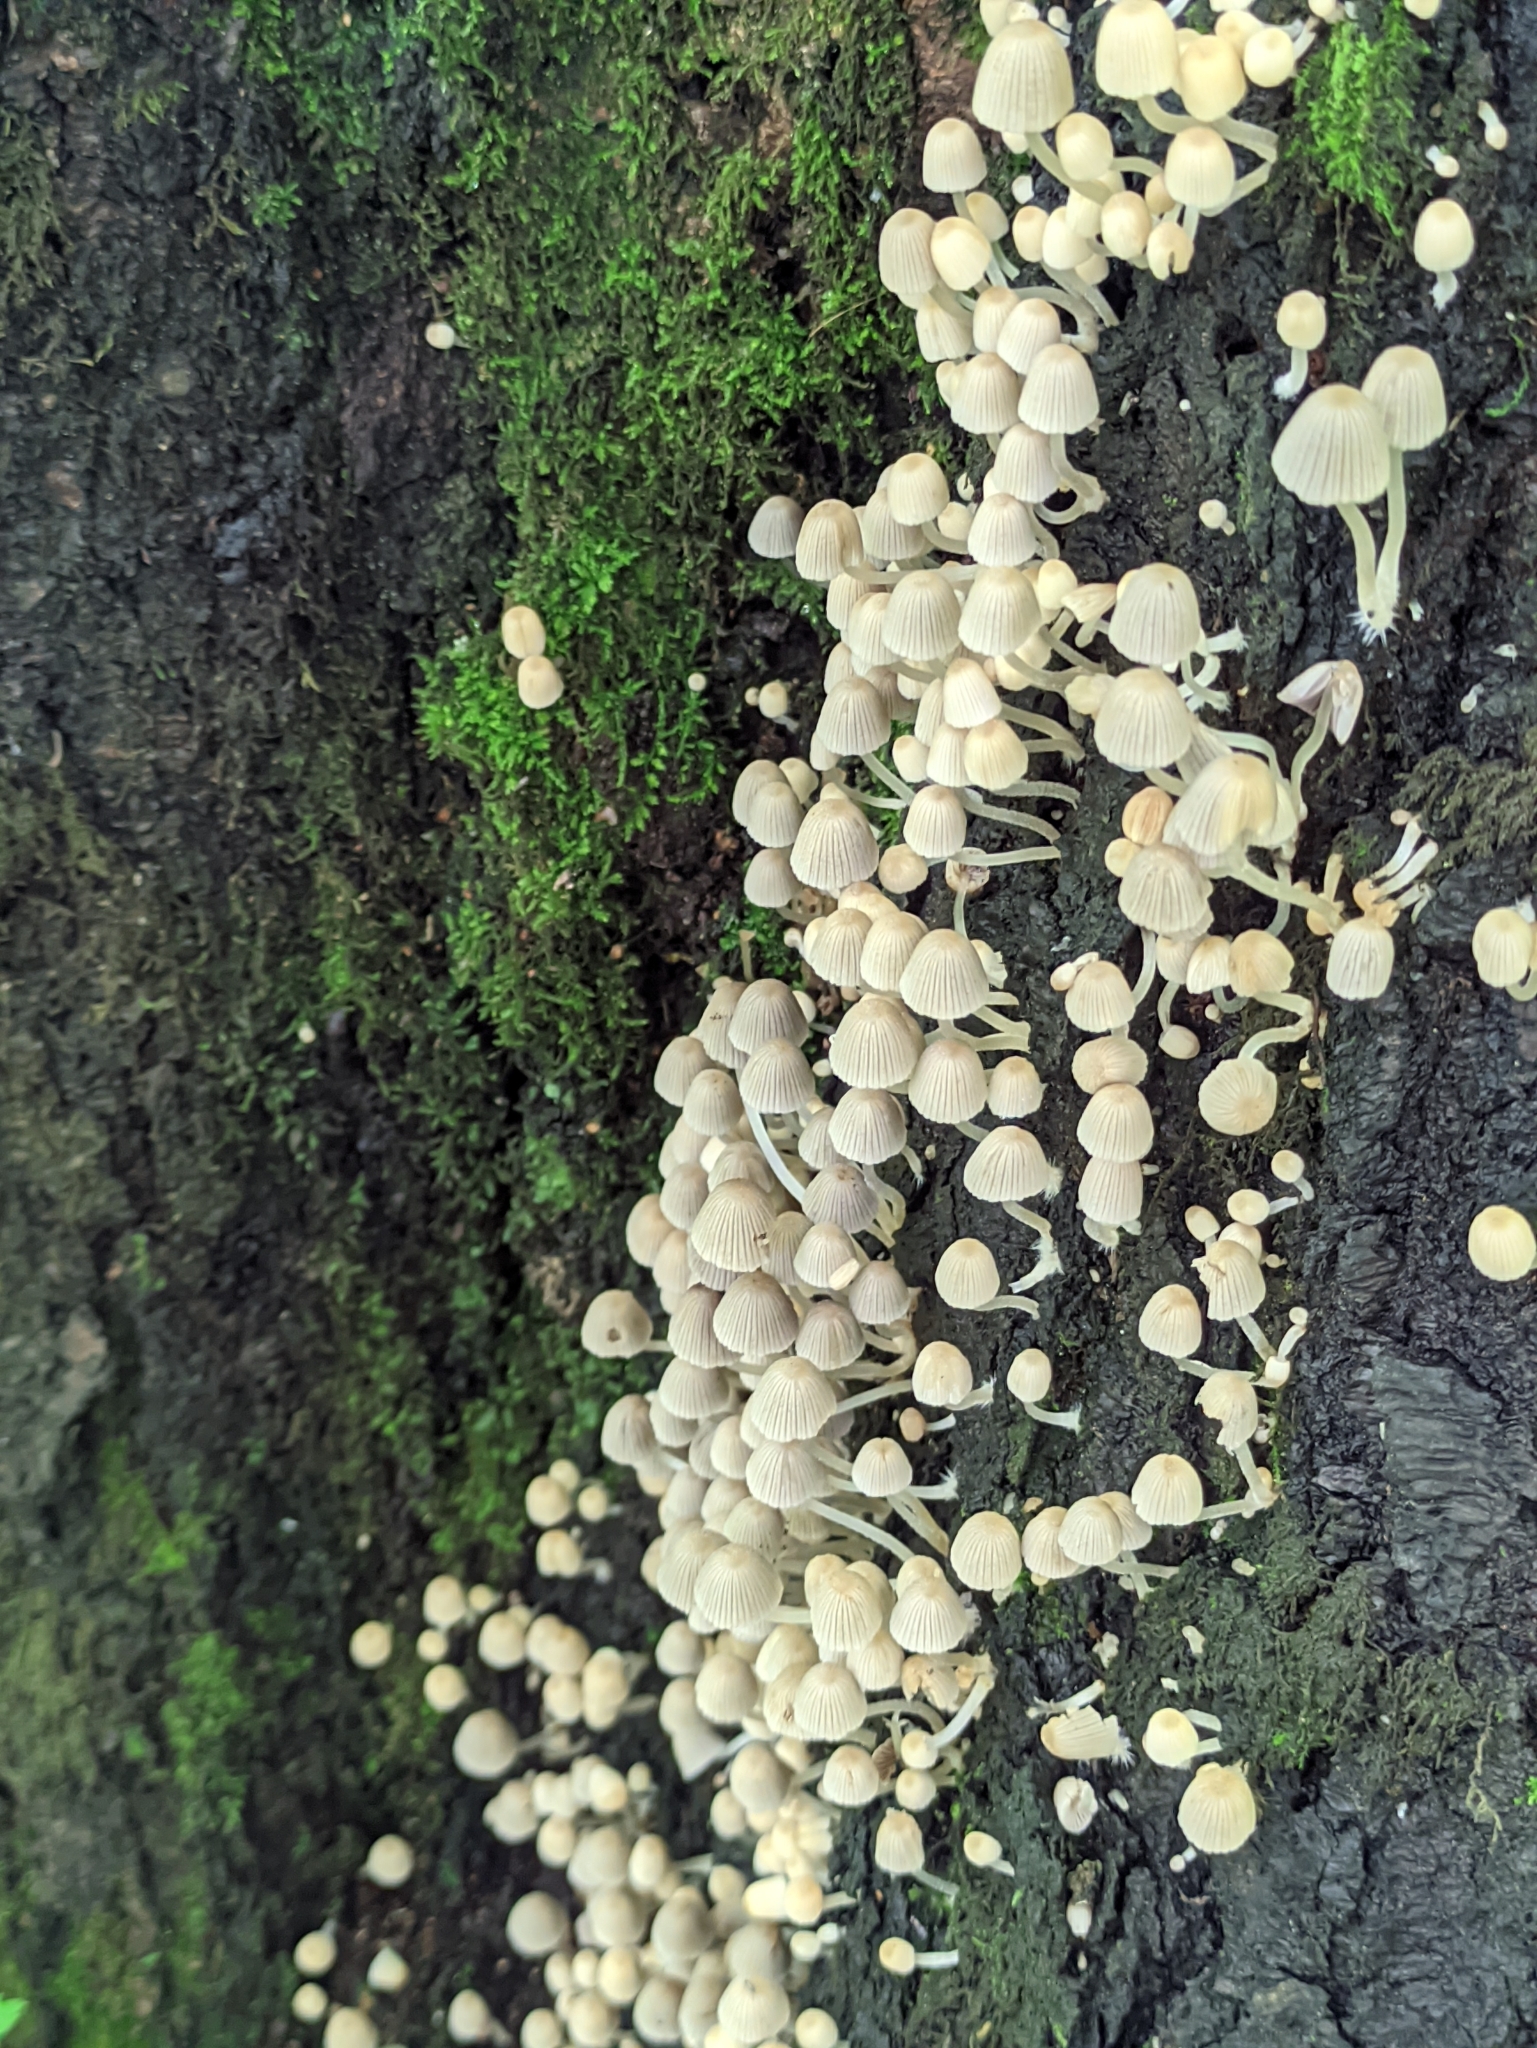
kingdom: Fungi
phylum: Basidiomycota
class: Agaricomycetes
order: Agaricales
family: Psathyrellaceae
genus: Coprinellus
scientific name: Coprinellus disseminatus
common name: Fairies' bonnets
